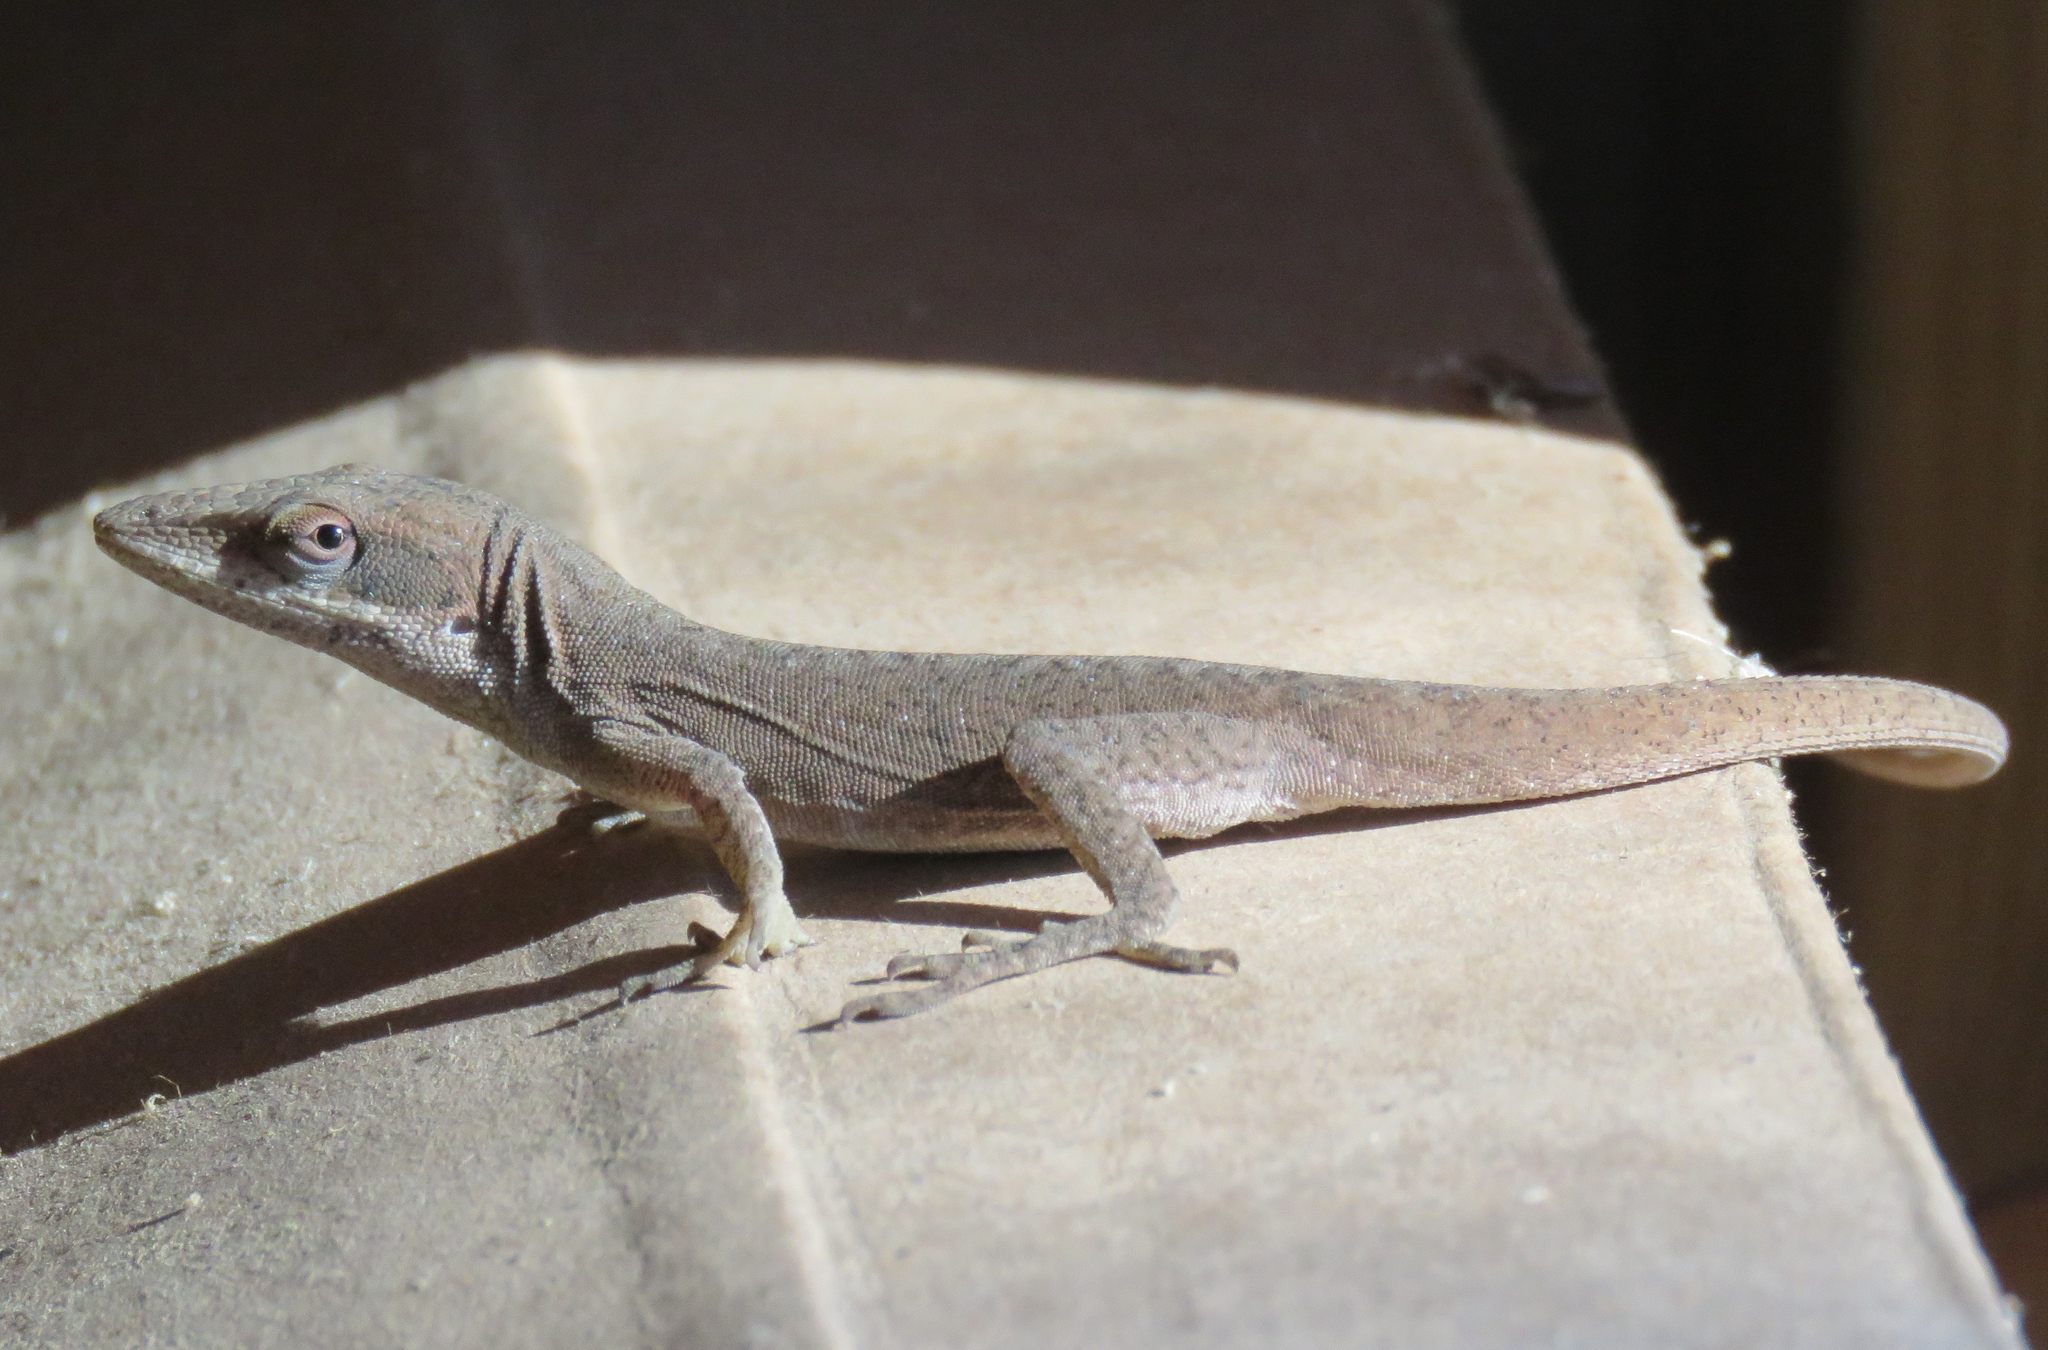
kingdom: Animalia
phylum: Chordata
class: Squamata
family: Dactyloidae
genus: Anolis
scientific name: Anolis carolinensis
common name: Green anole
